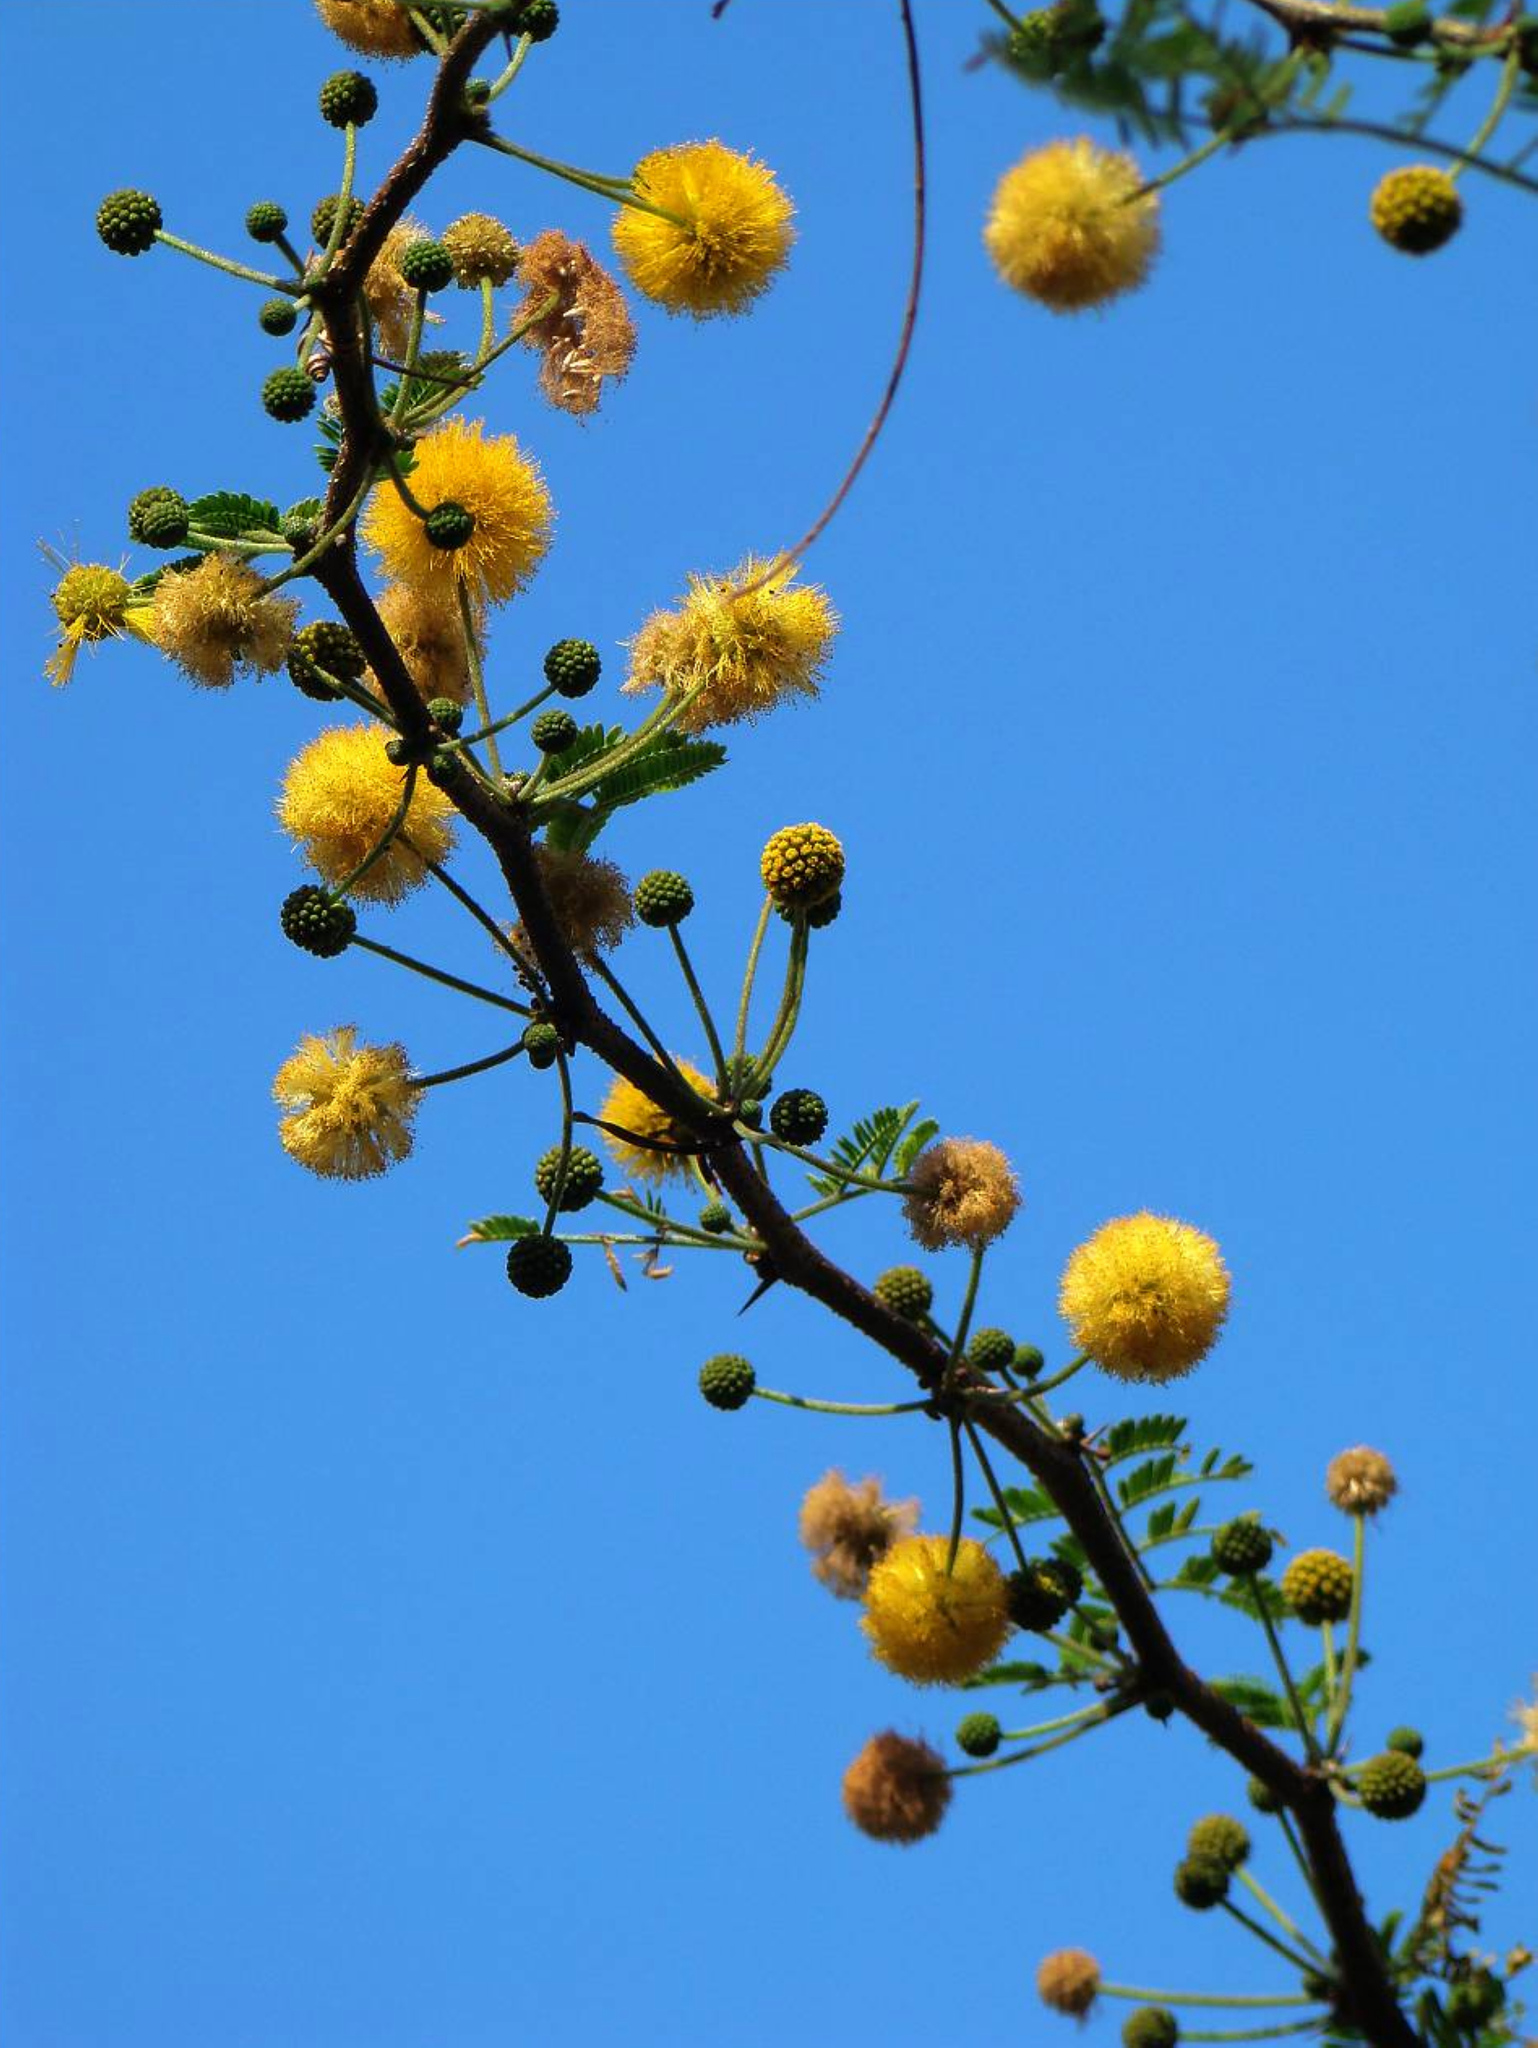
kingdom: Plantae
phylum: Tracheophyta
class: Magnoliopsida
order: Fabales
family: Fabaceae
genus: Vachellia
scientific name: Vachellia farnesiana
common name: Sweet acacia
